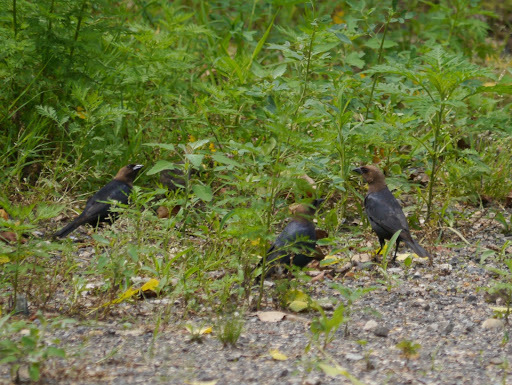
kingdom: Animalia
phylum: Chordata
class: Aves
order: Passeriformes
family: Icteridae
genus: Molothrus
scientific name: Molothrus ater
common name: Brown-headed cowbird
